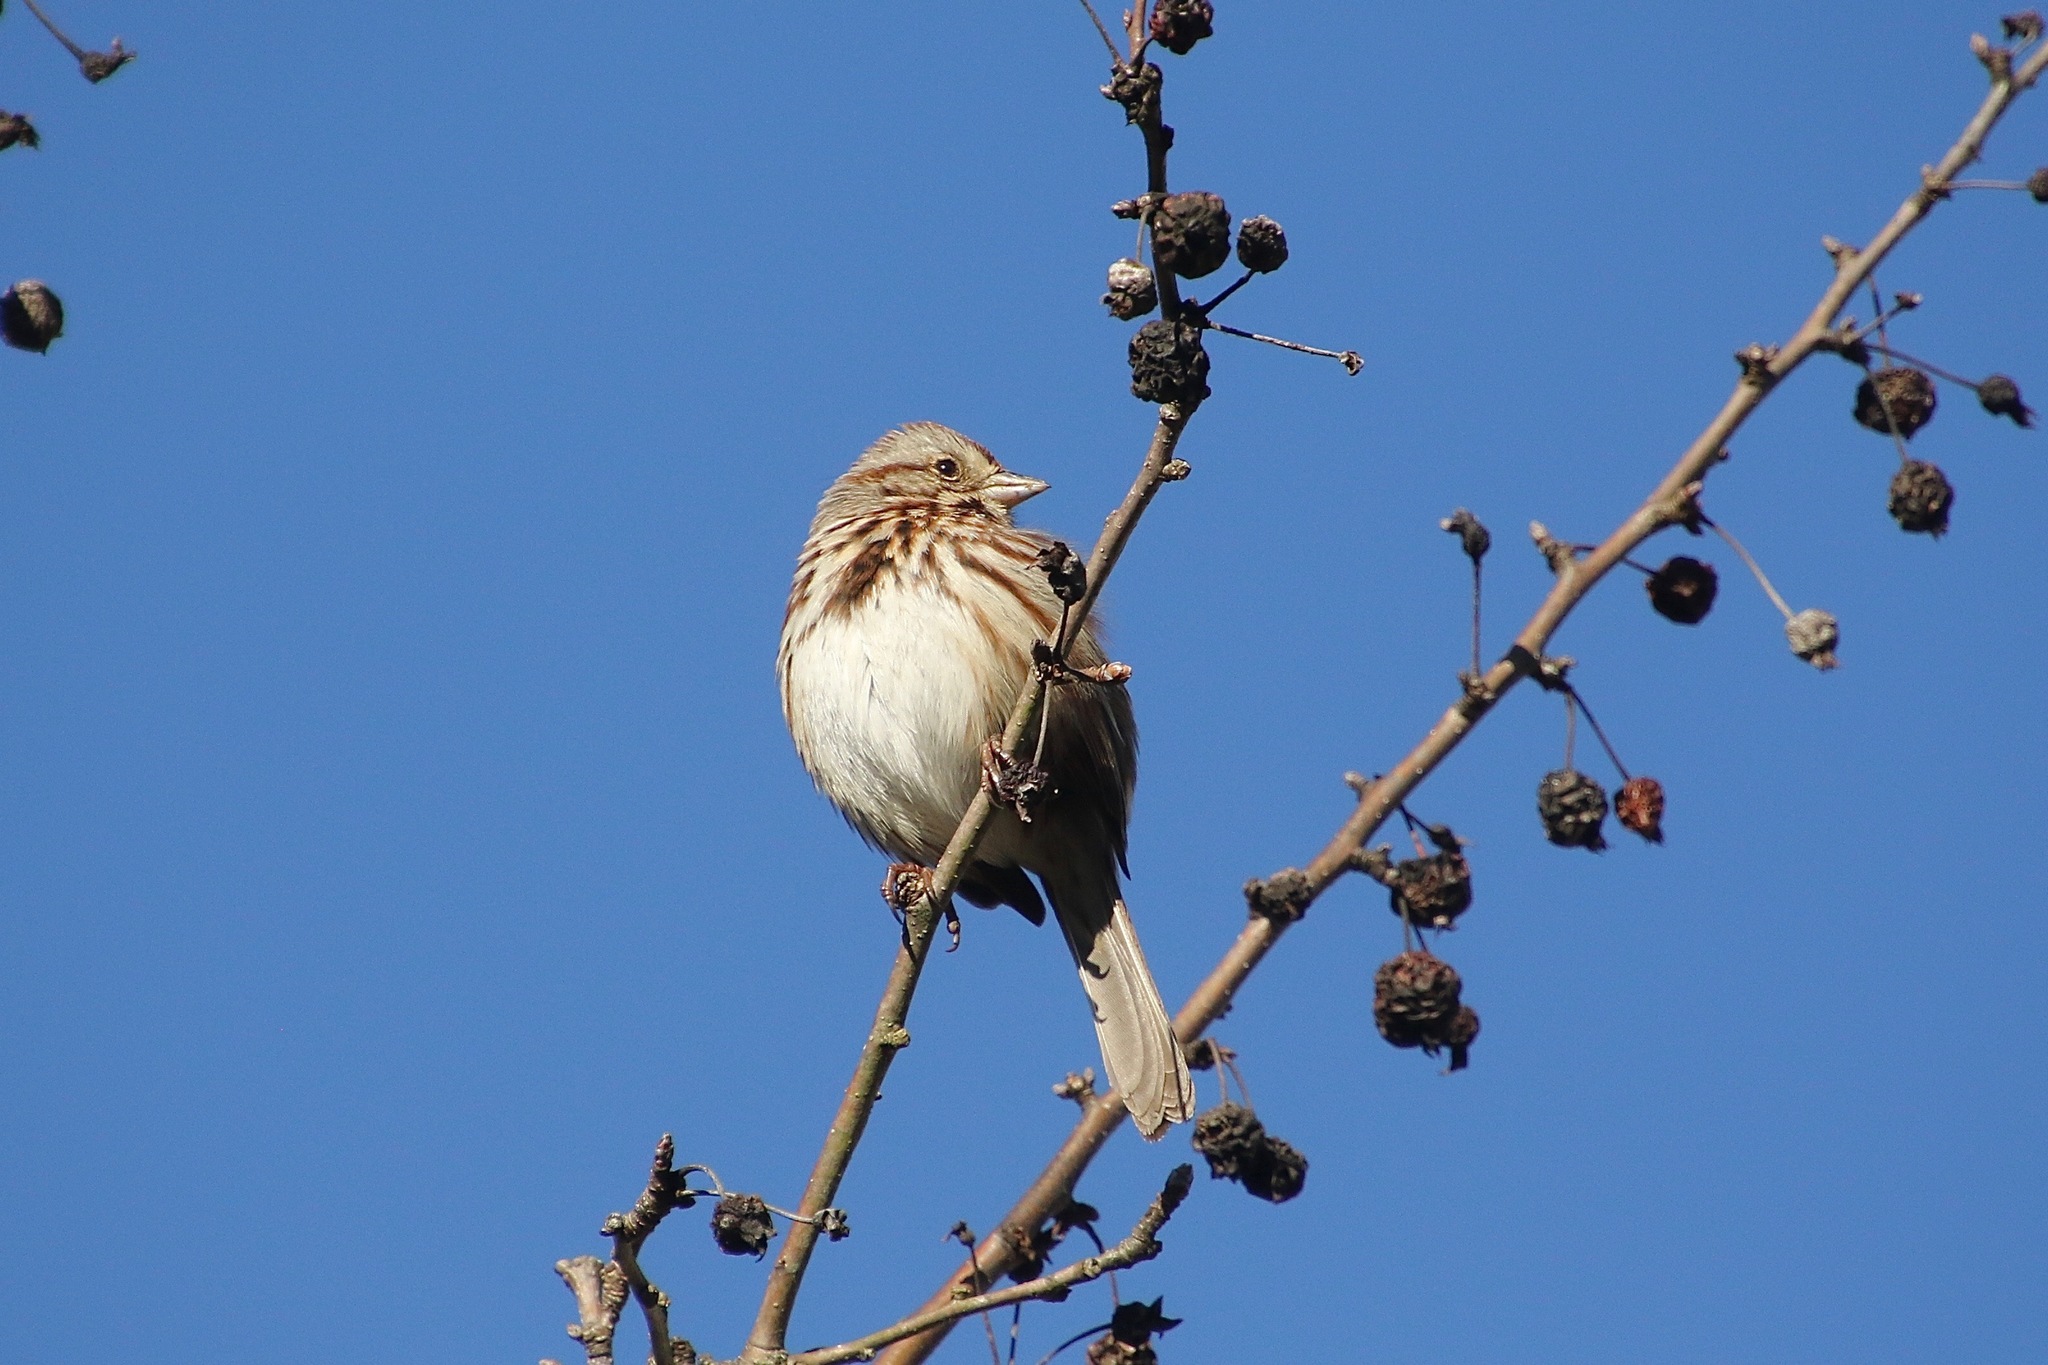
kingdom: Animalia
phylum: Chordata
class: Aves
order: Passeriformes
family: Passerellidae
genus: Melospiza
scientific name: Melospiza melodia
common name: Song sparrow
